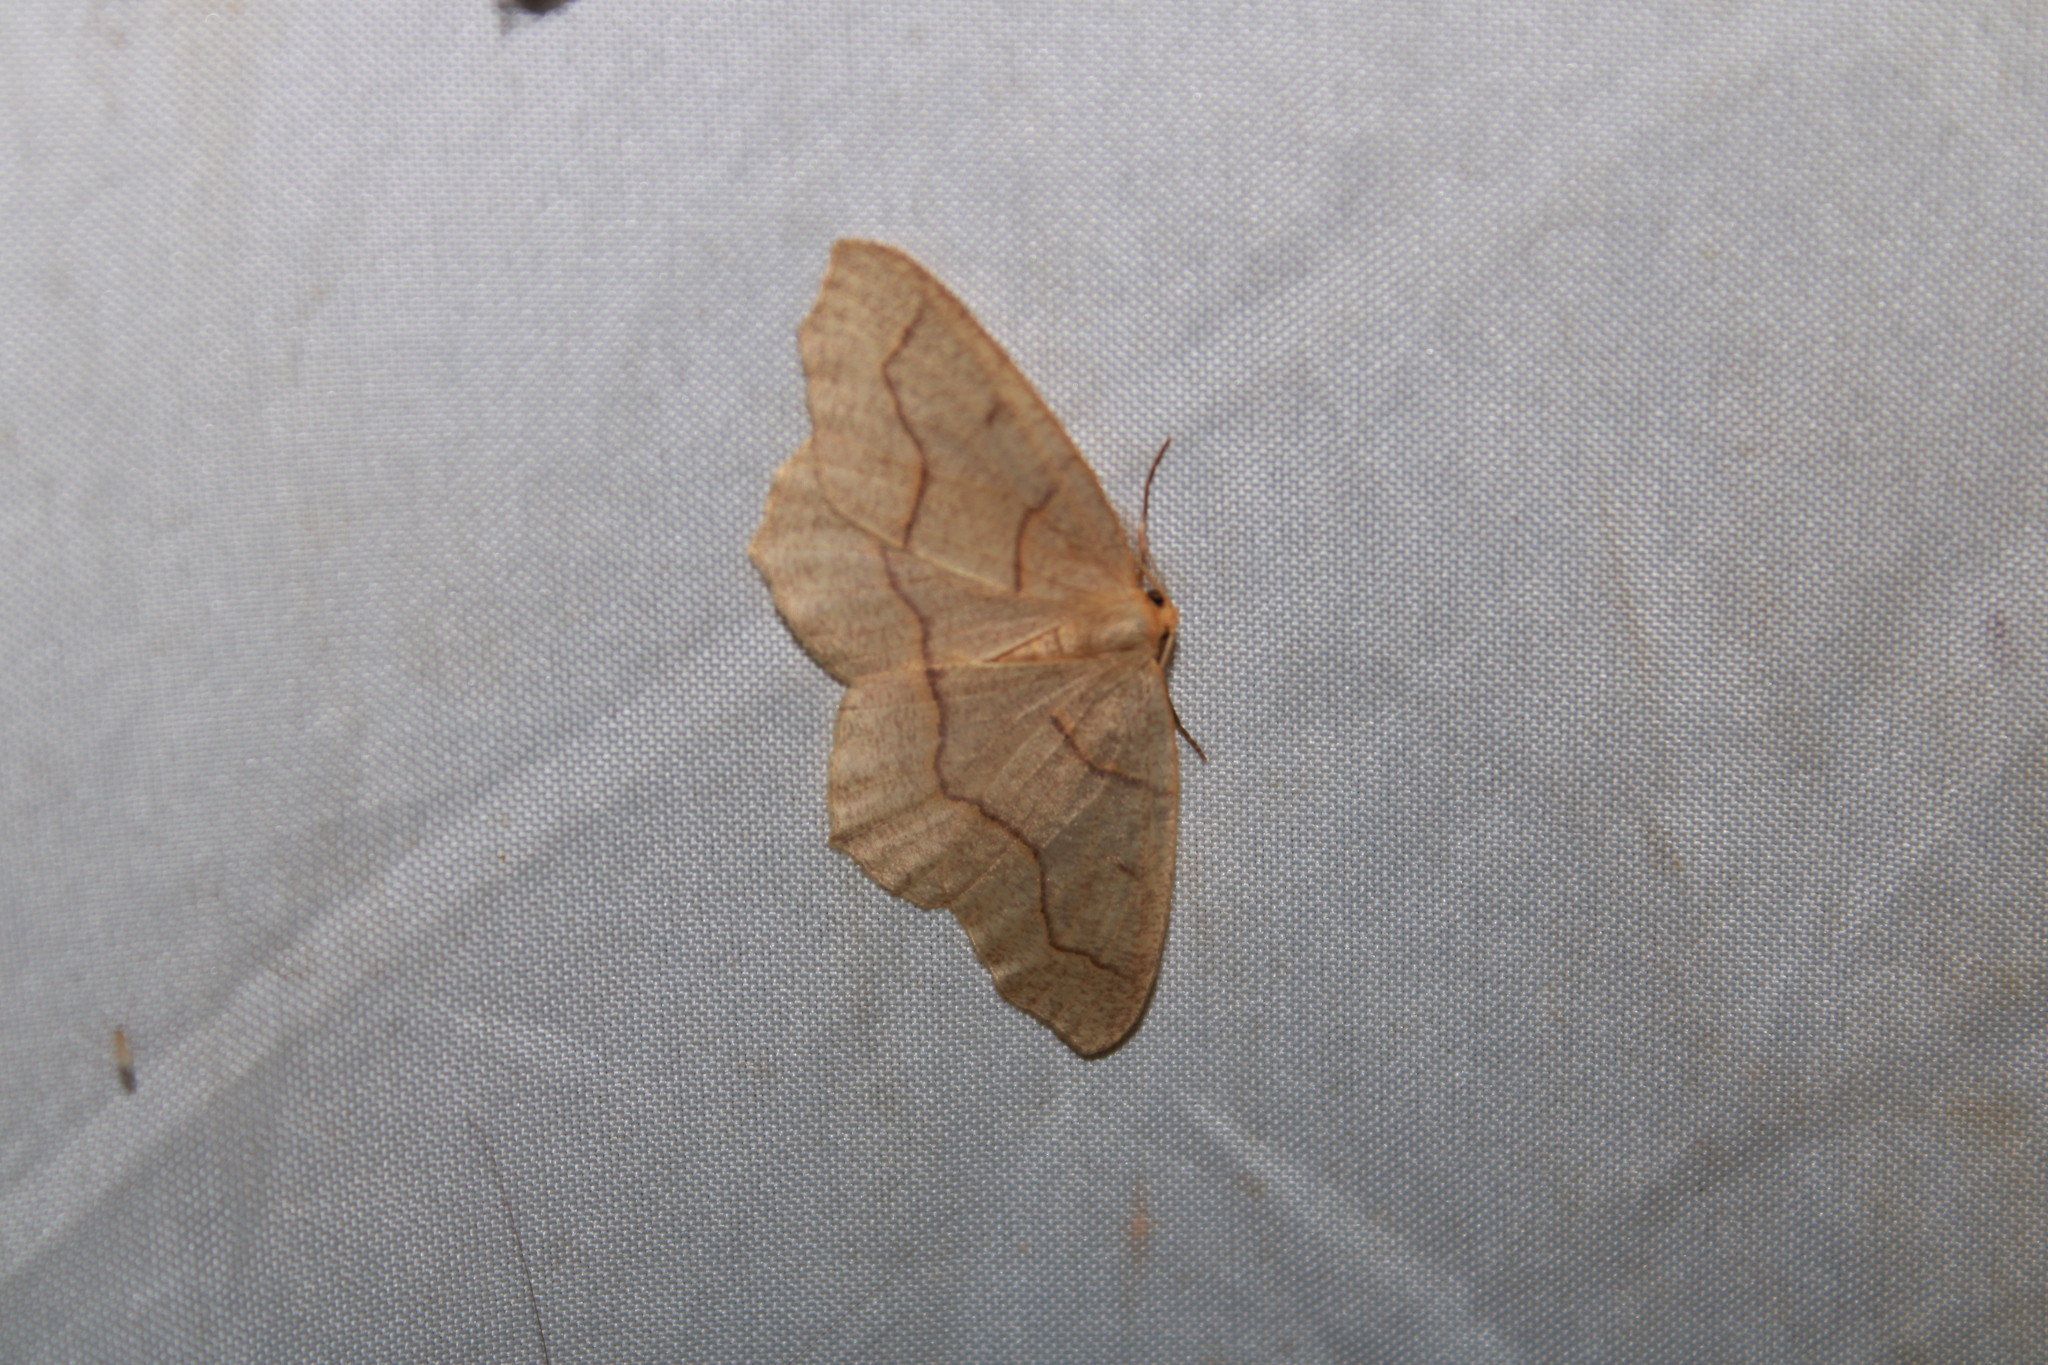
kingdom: Animalia
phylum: Arthropoda
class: Insecta
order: Lepidoptera
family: Geometridae
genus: Lambdina
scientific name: Lambdina fiscellaria
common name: Hemlock looper
